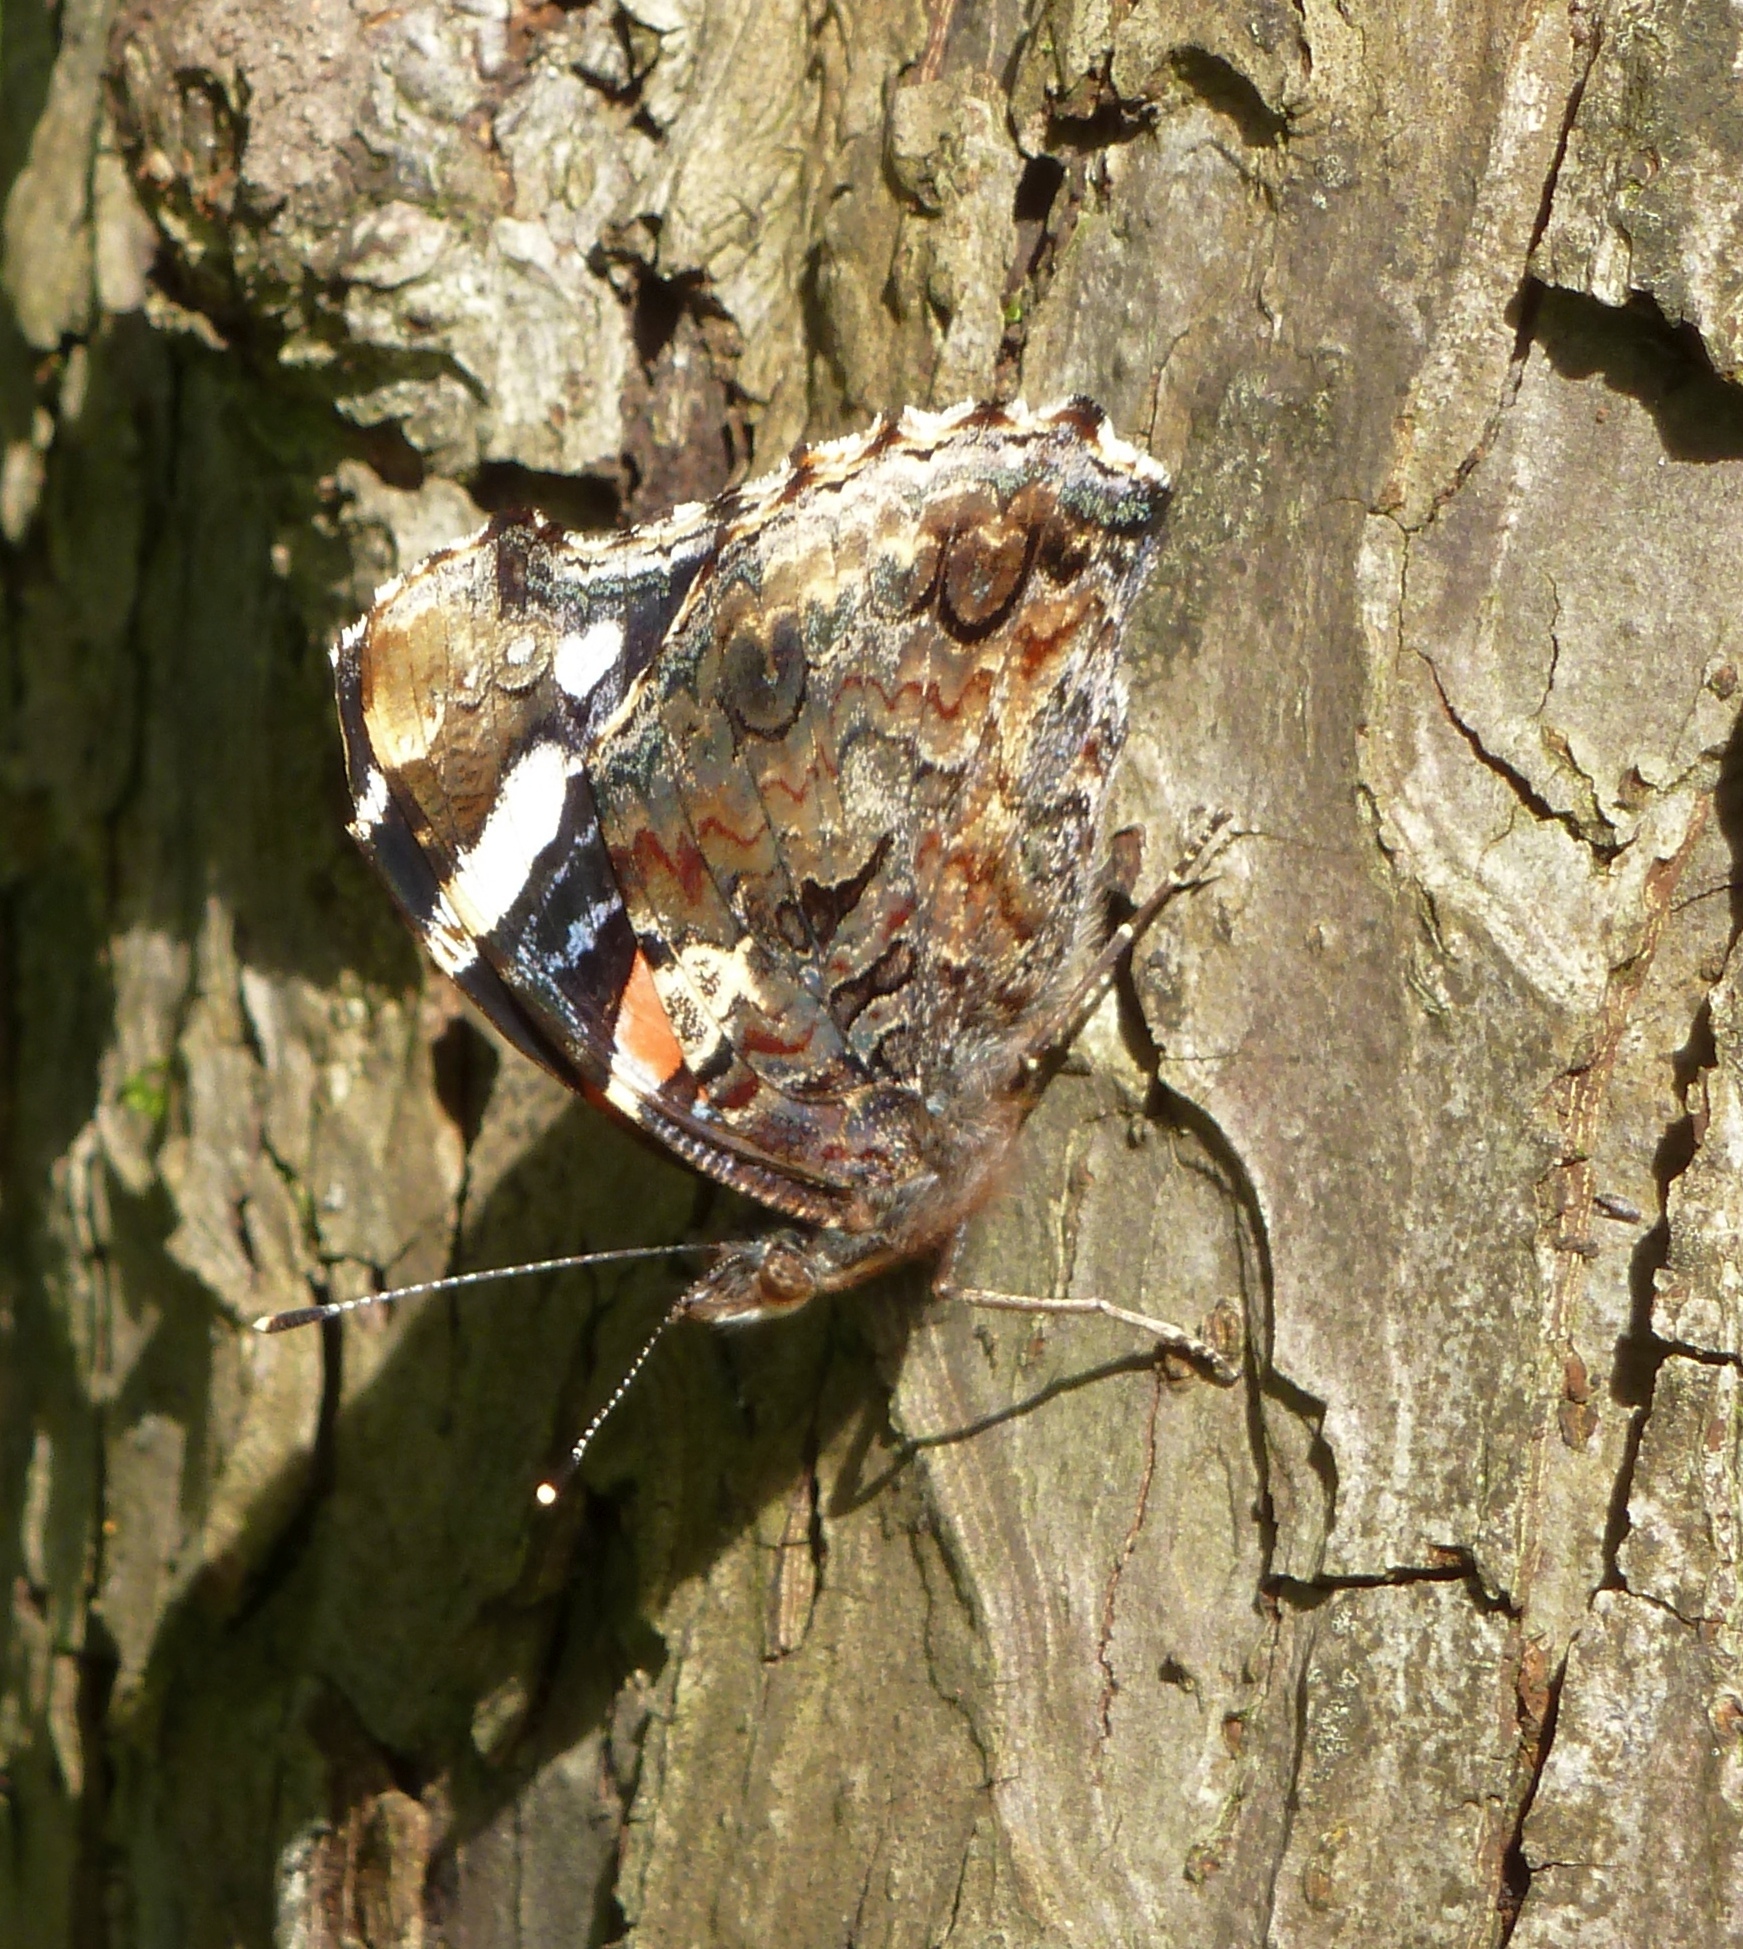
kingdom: Animalia
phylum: Arthropoda
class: Insecta
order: Lepidoptera
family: Nymphalidae
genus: Vanessa
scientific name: Vanessa atalanta
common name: Red admiral
